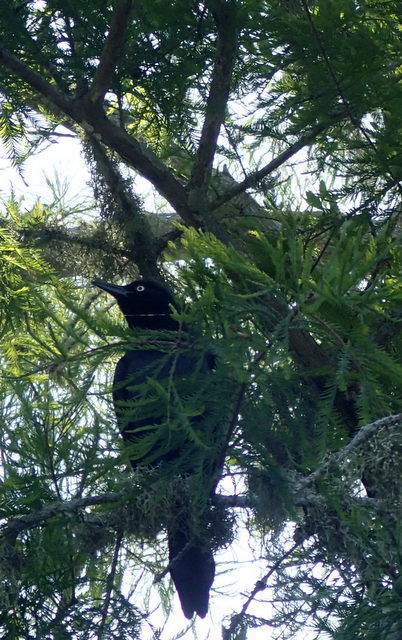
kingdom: Animalia
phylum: Chordata
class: Aves
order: Passeriformes
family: Icteridae
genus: Quiscalus
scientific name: Quiscalus quiscula
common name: Common grackle
